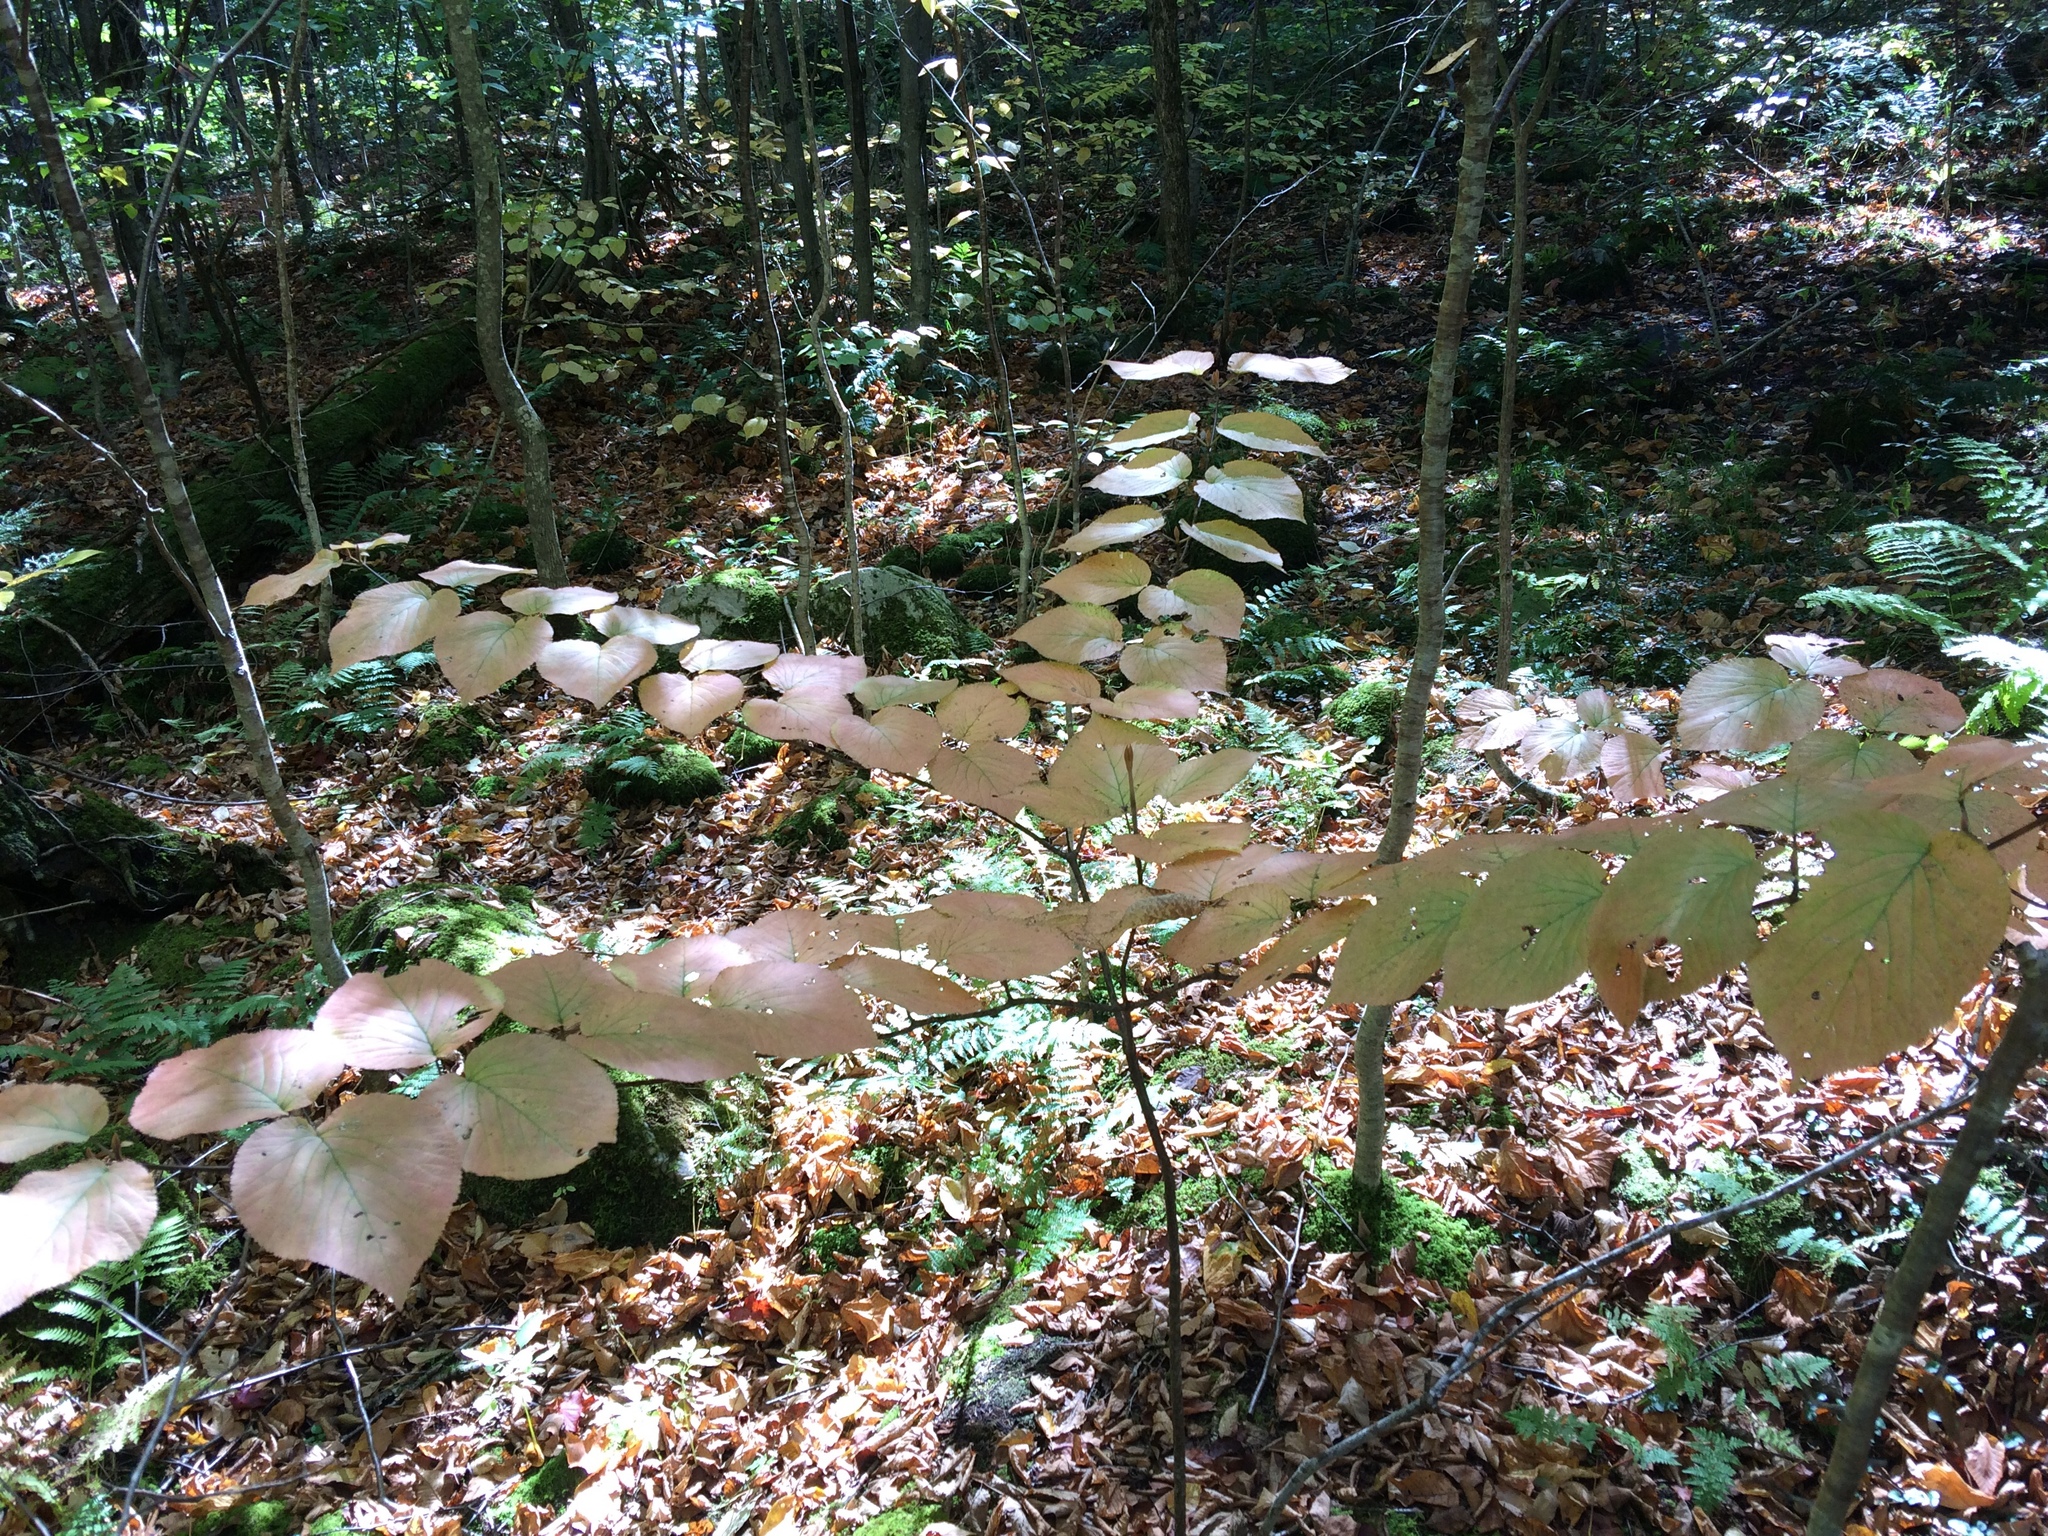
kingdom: Plantae
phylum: Tracheophyta
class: Magnoliopsida
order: Dipsacales
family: Viburnaceae
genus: Viburnum
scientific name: Viburnum lantanoides
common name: Hobblebush
